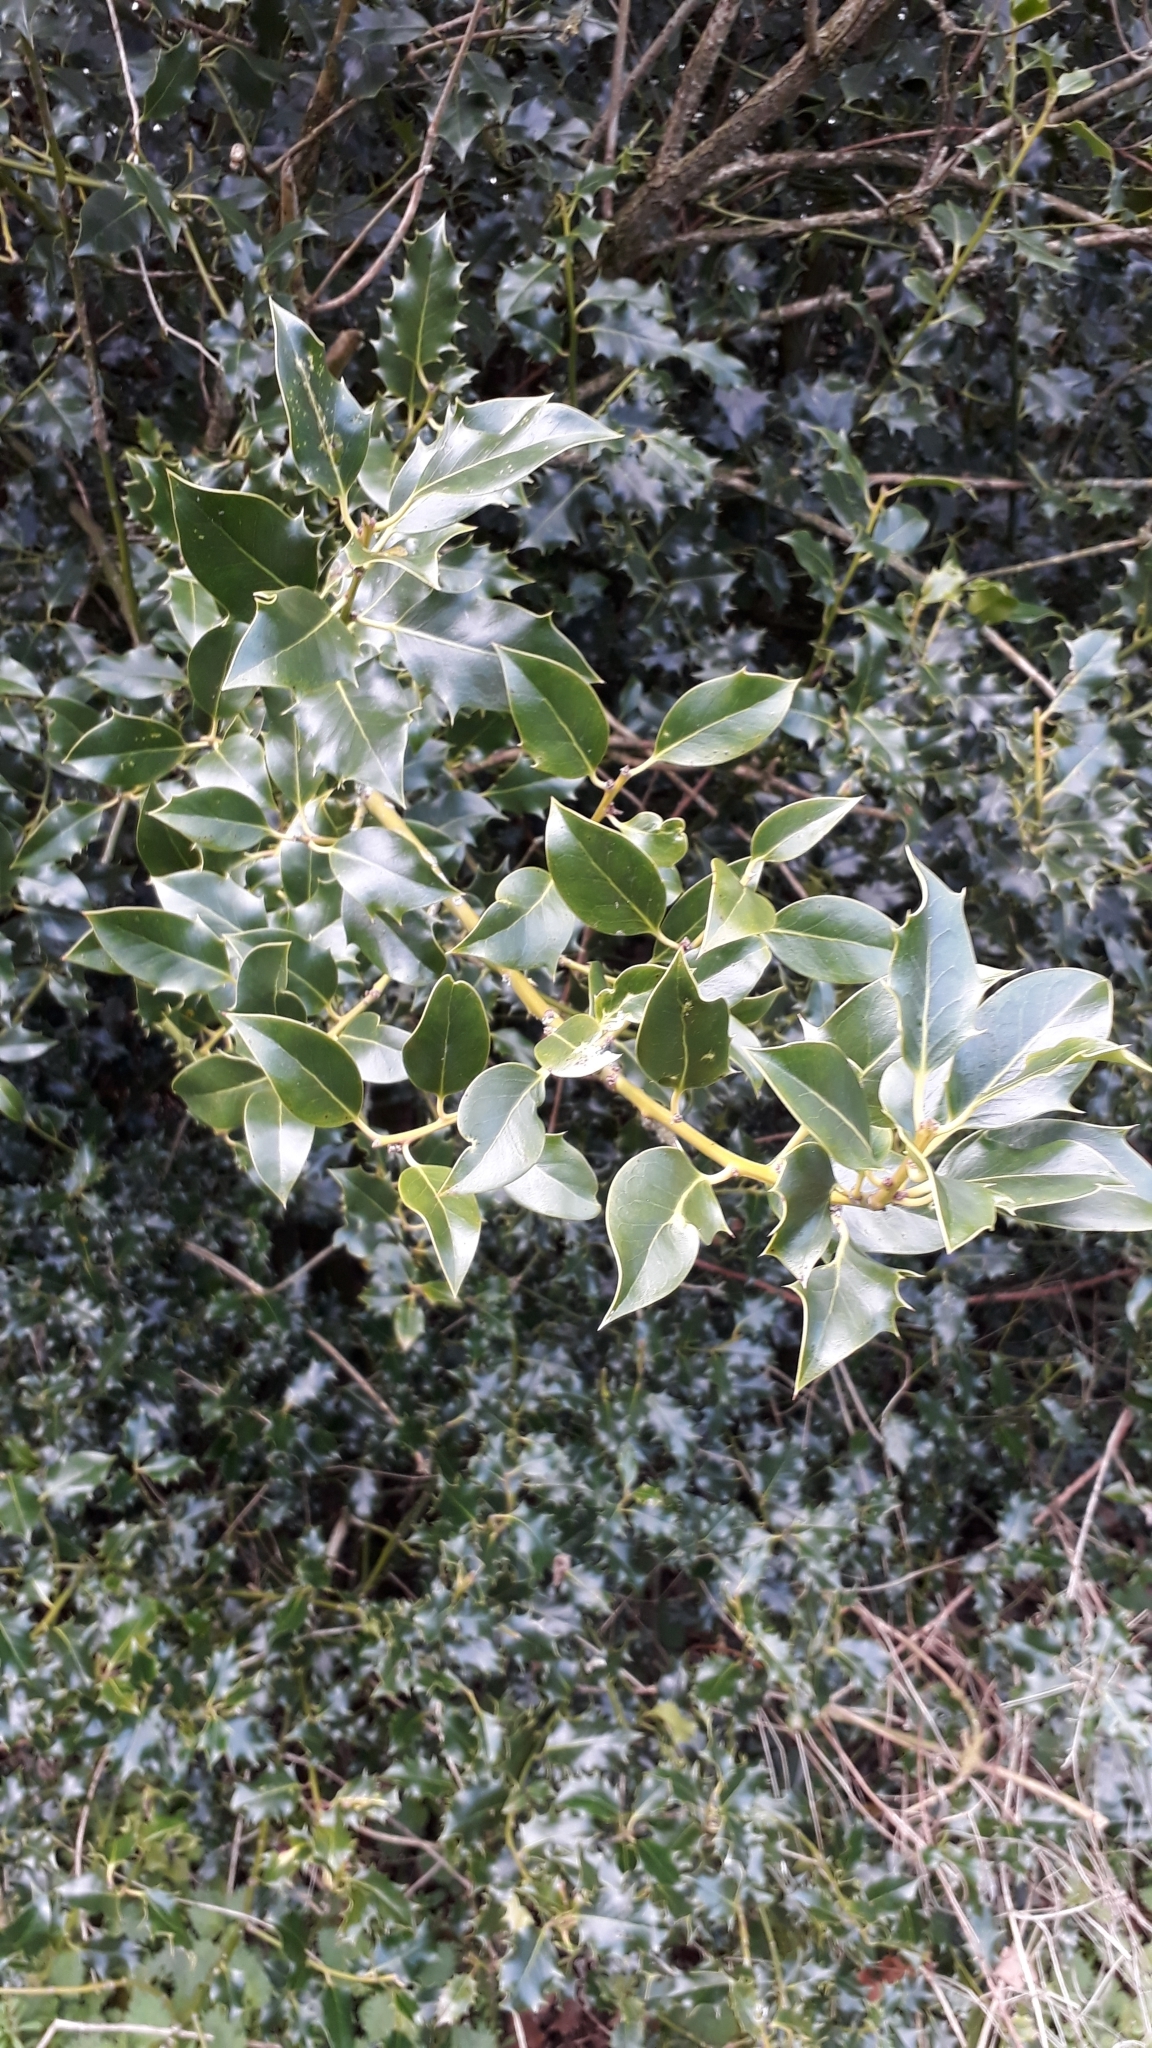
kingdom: Plantae
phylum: Tracheophyta
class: Magnoliopsida
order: Aquifoliales
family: Aquifoliaceae
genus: Ilex
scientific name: Ilex aquifolium
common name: English holly
